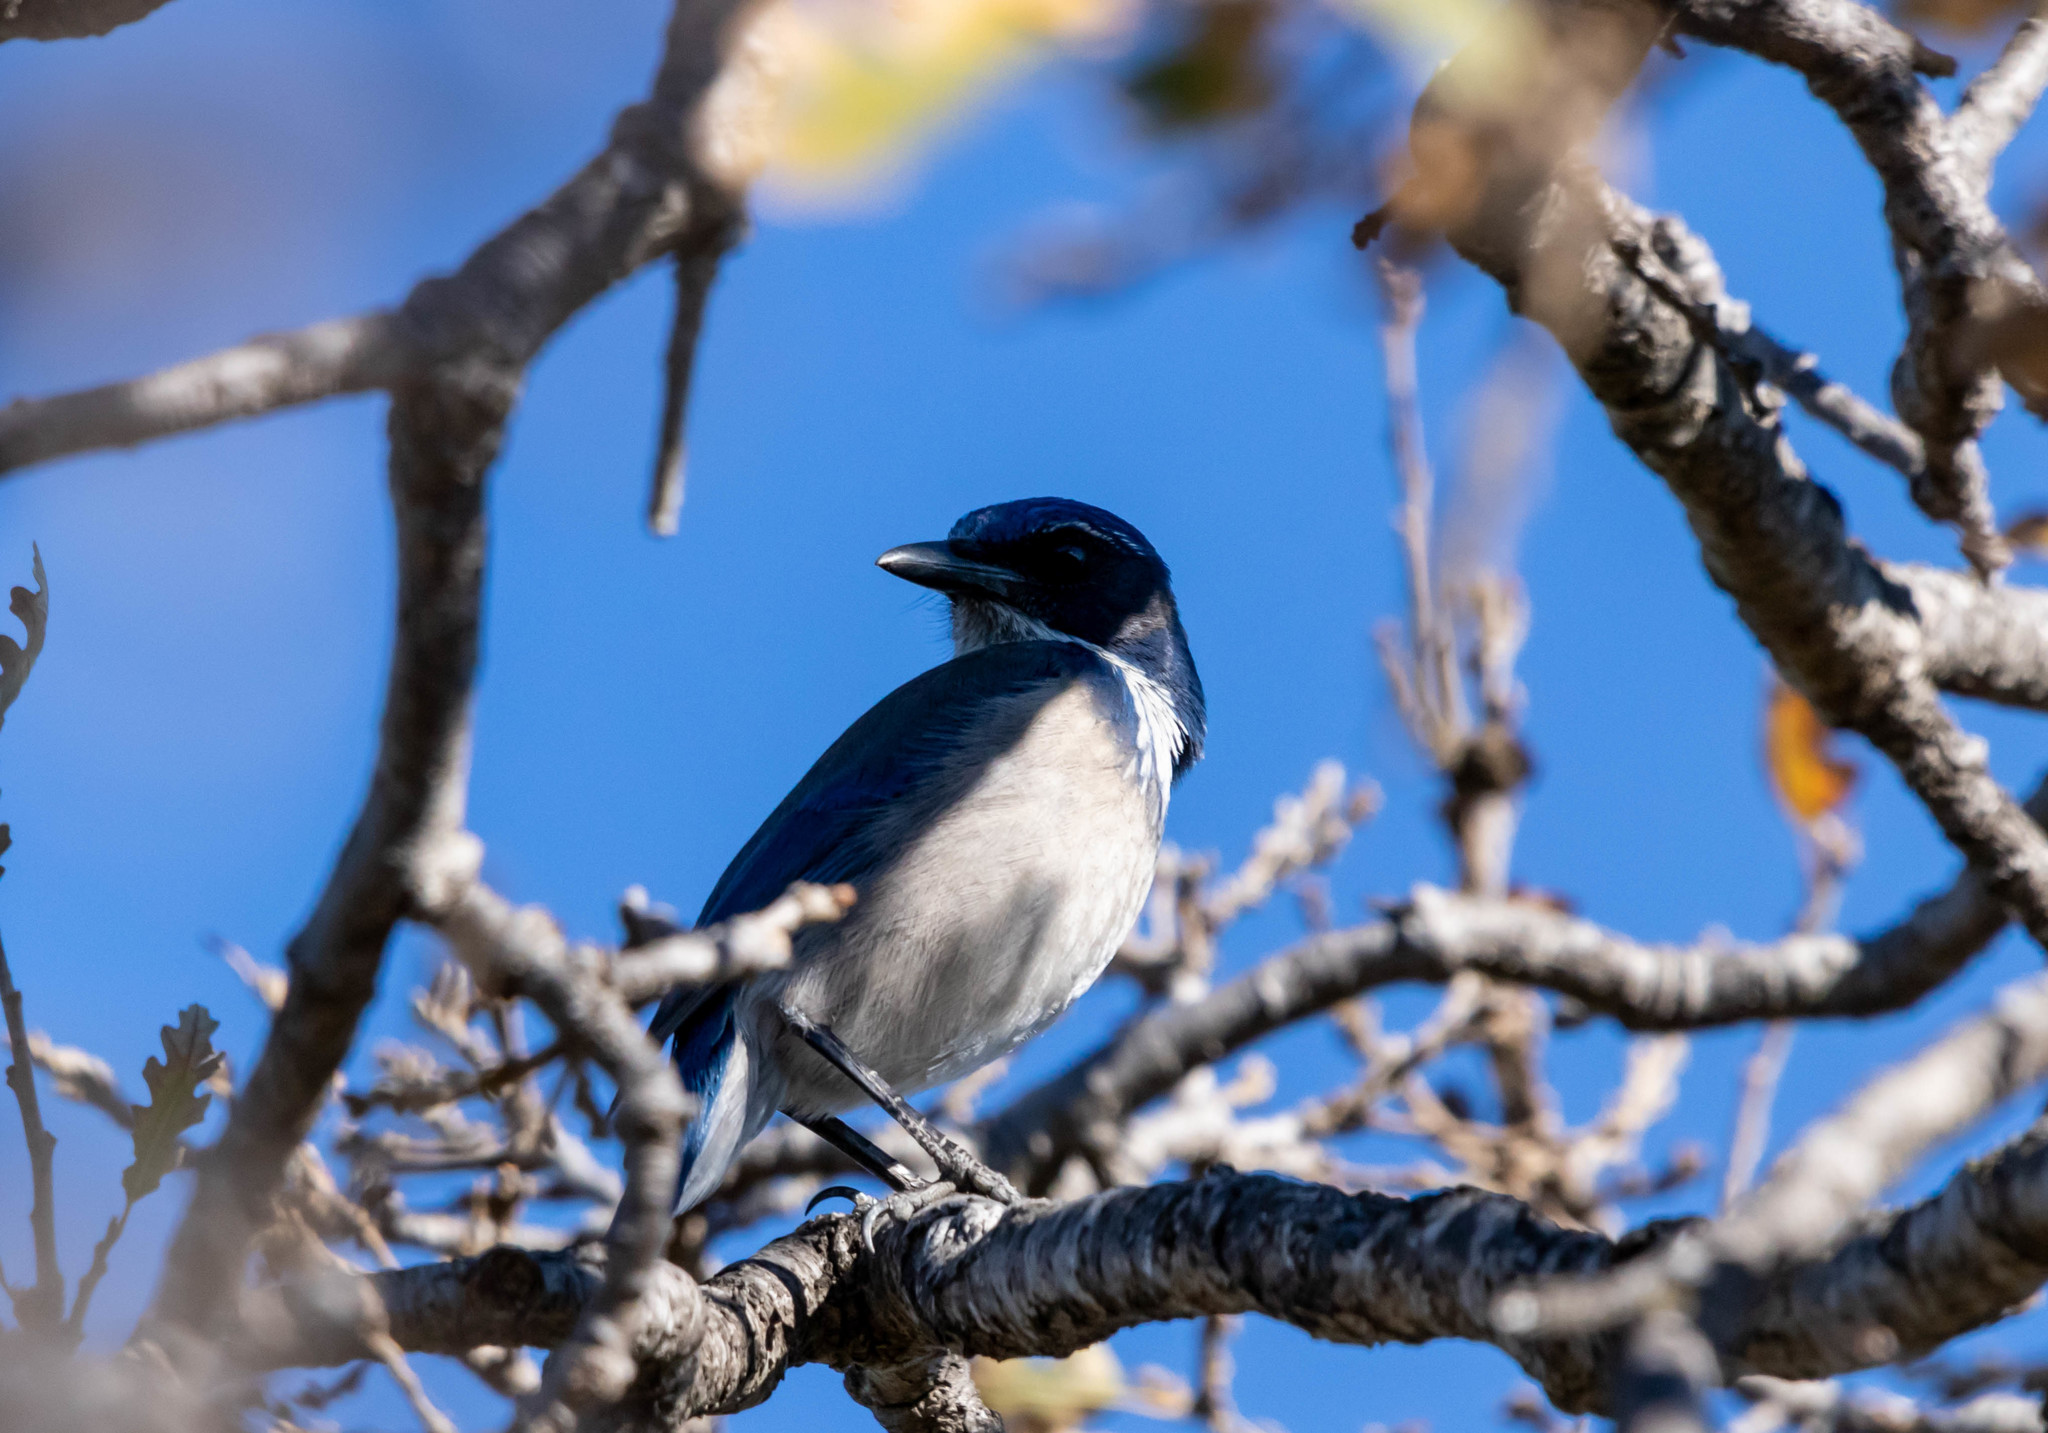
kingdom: Animalia
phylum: Chordata
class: Aves
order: Passeriformes
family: Corvidae
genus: Aphelocoma
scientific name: Aphelocoma californica
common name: California scrub-jay
